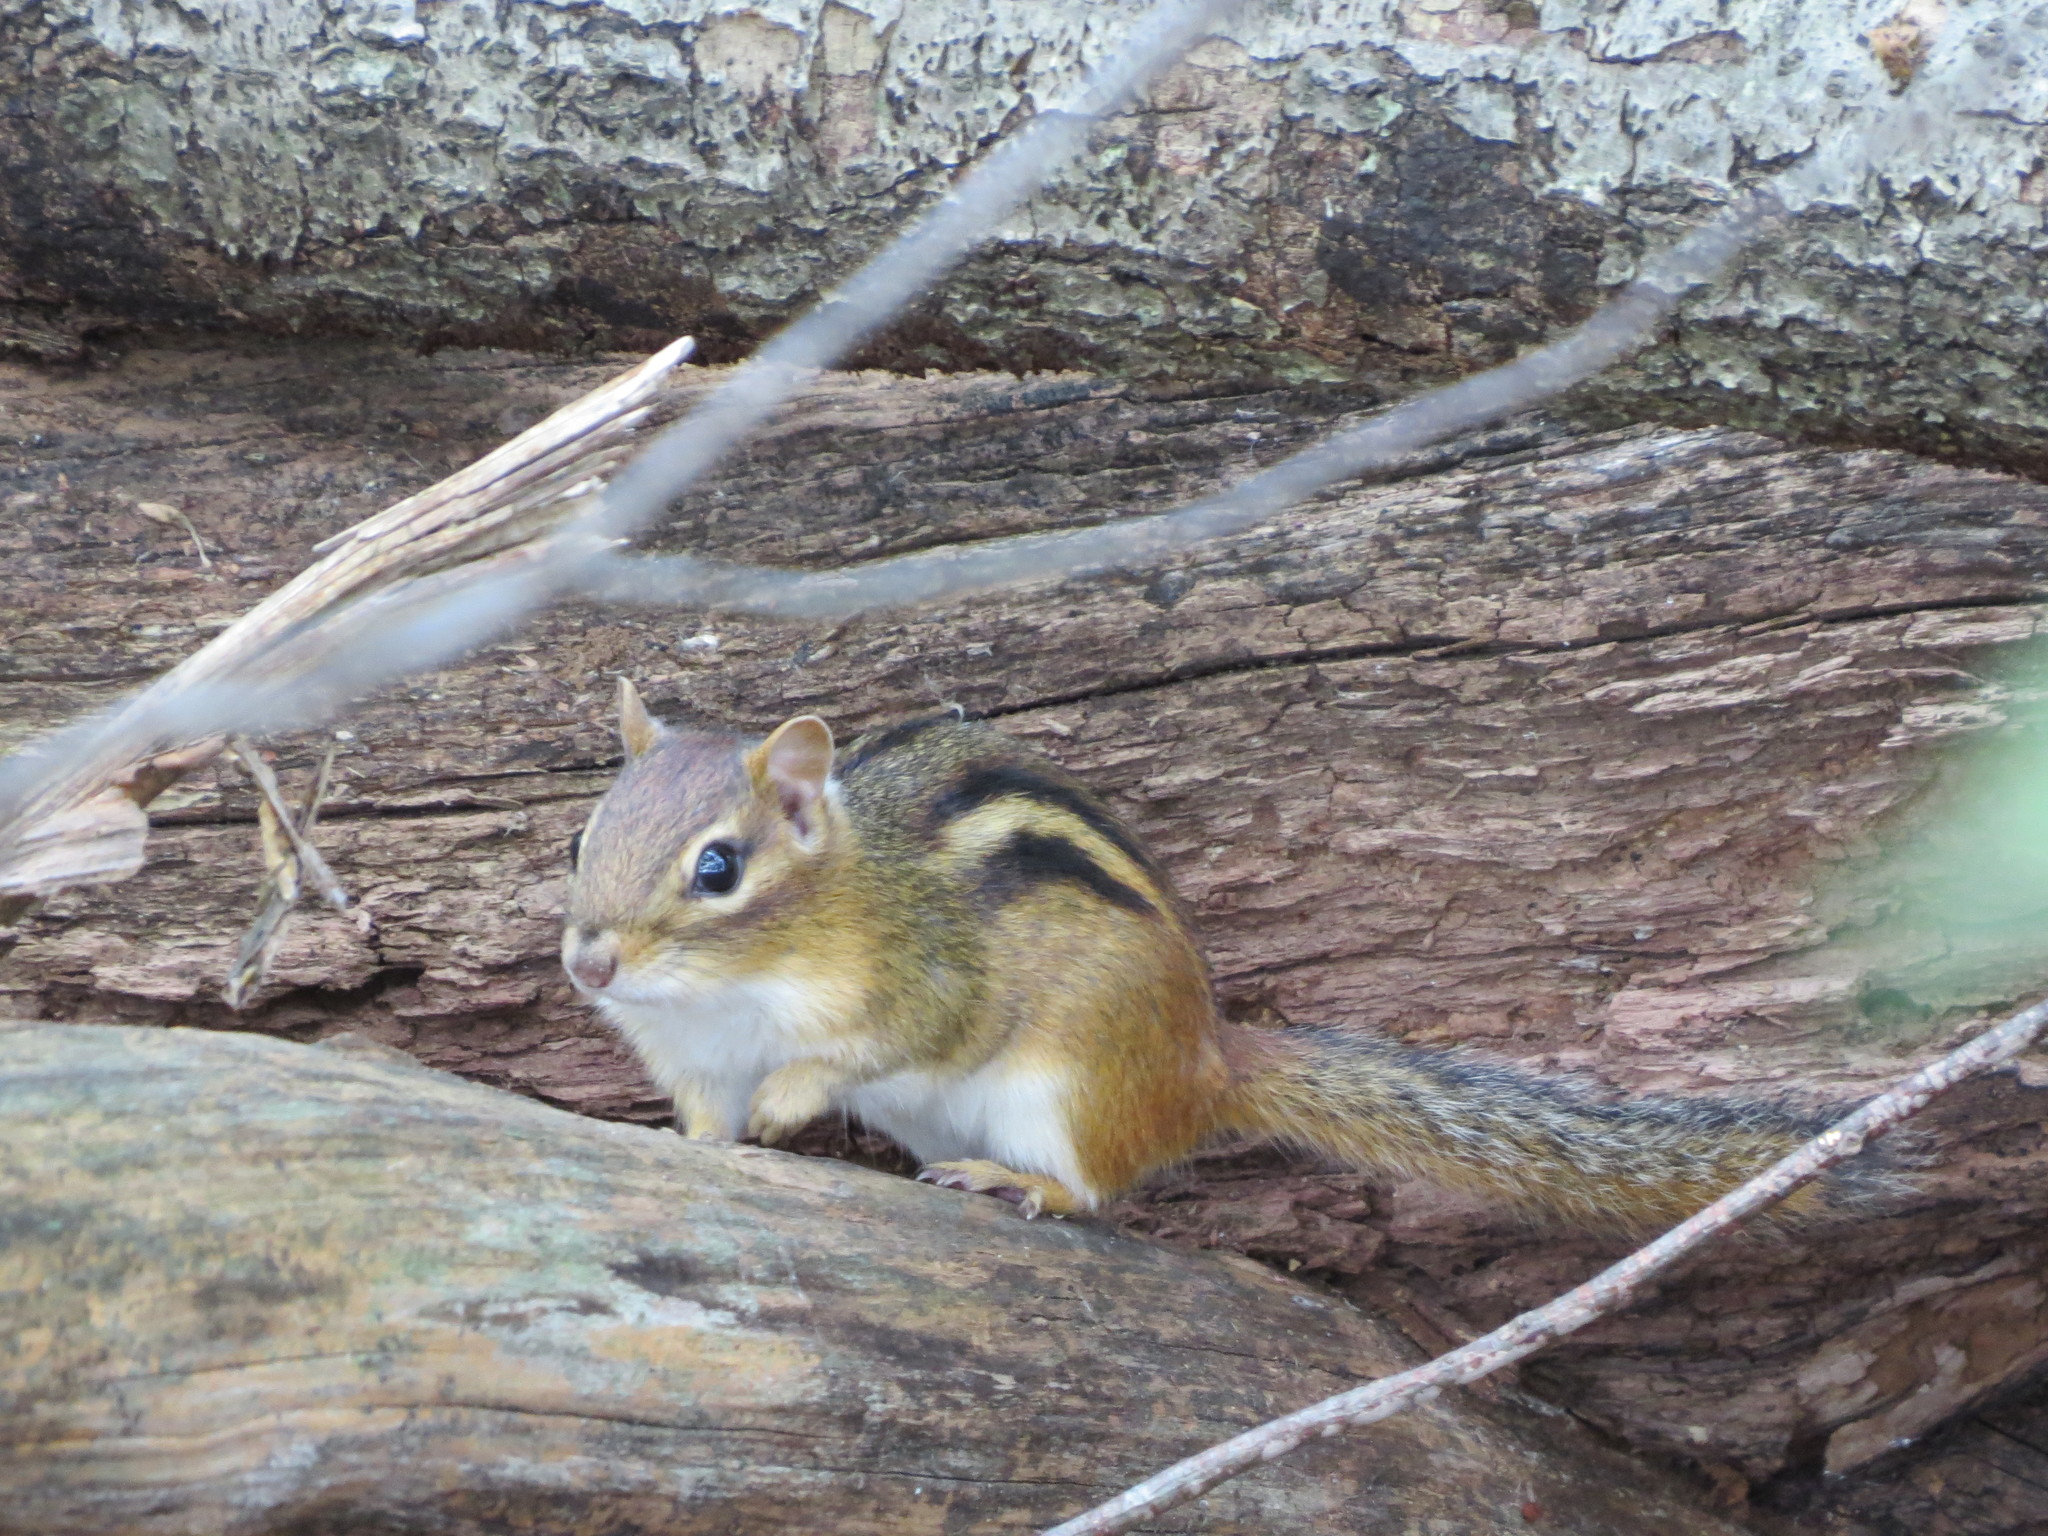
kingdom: Animalia
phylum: Chordata
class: Mammalia
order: Rodentia
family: Sciuridae
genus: Tamias
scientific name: Tamias striatus
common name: Eastern chipmunk
